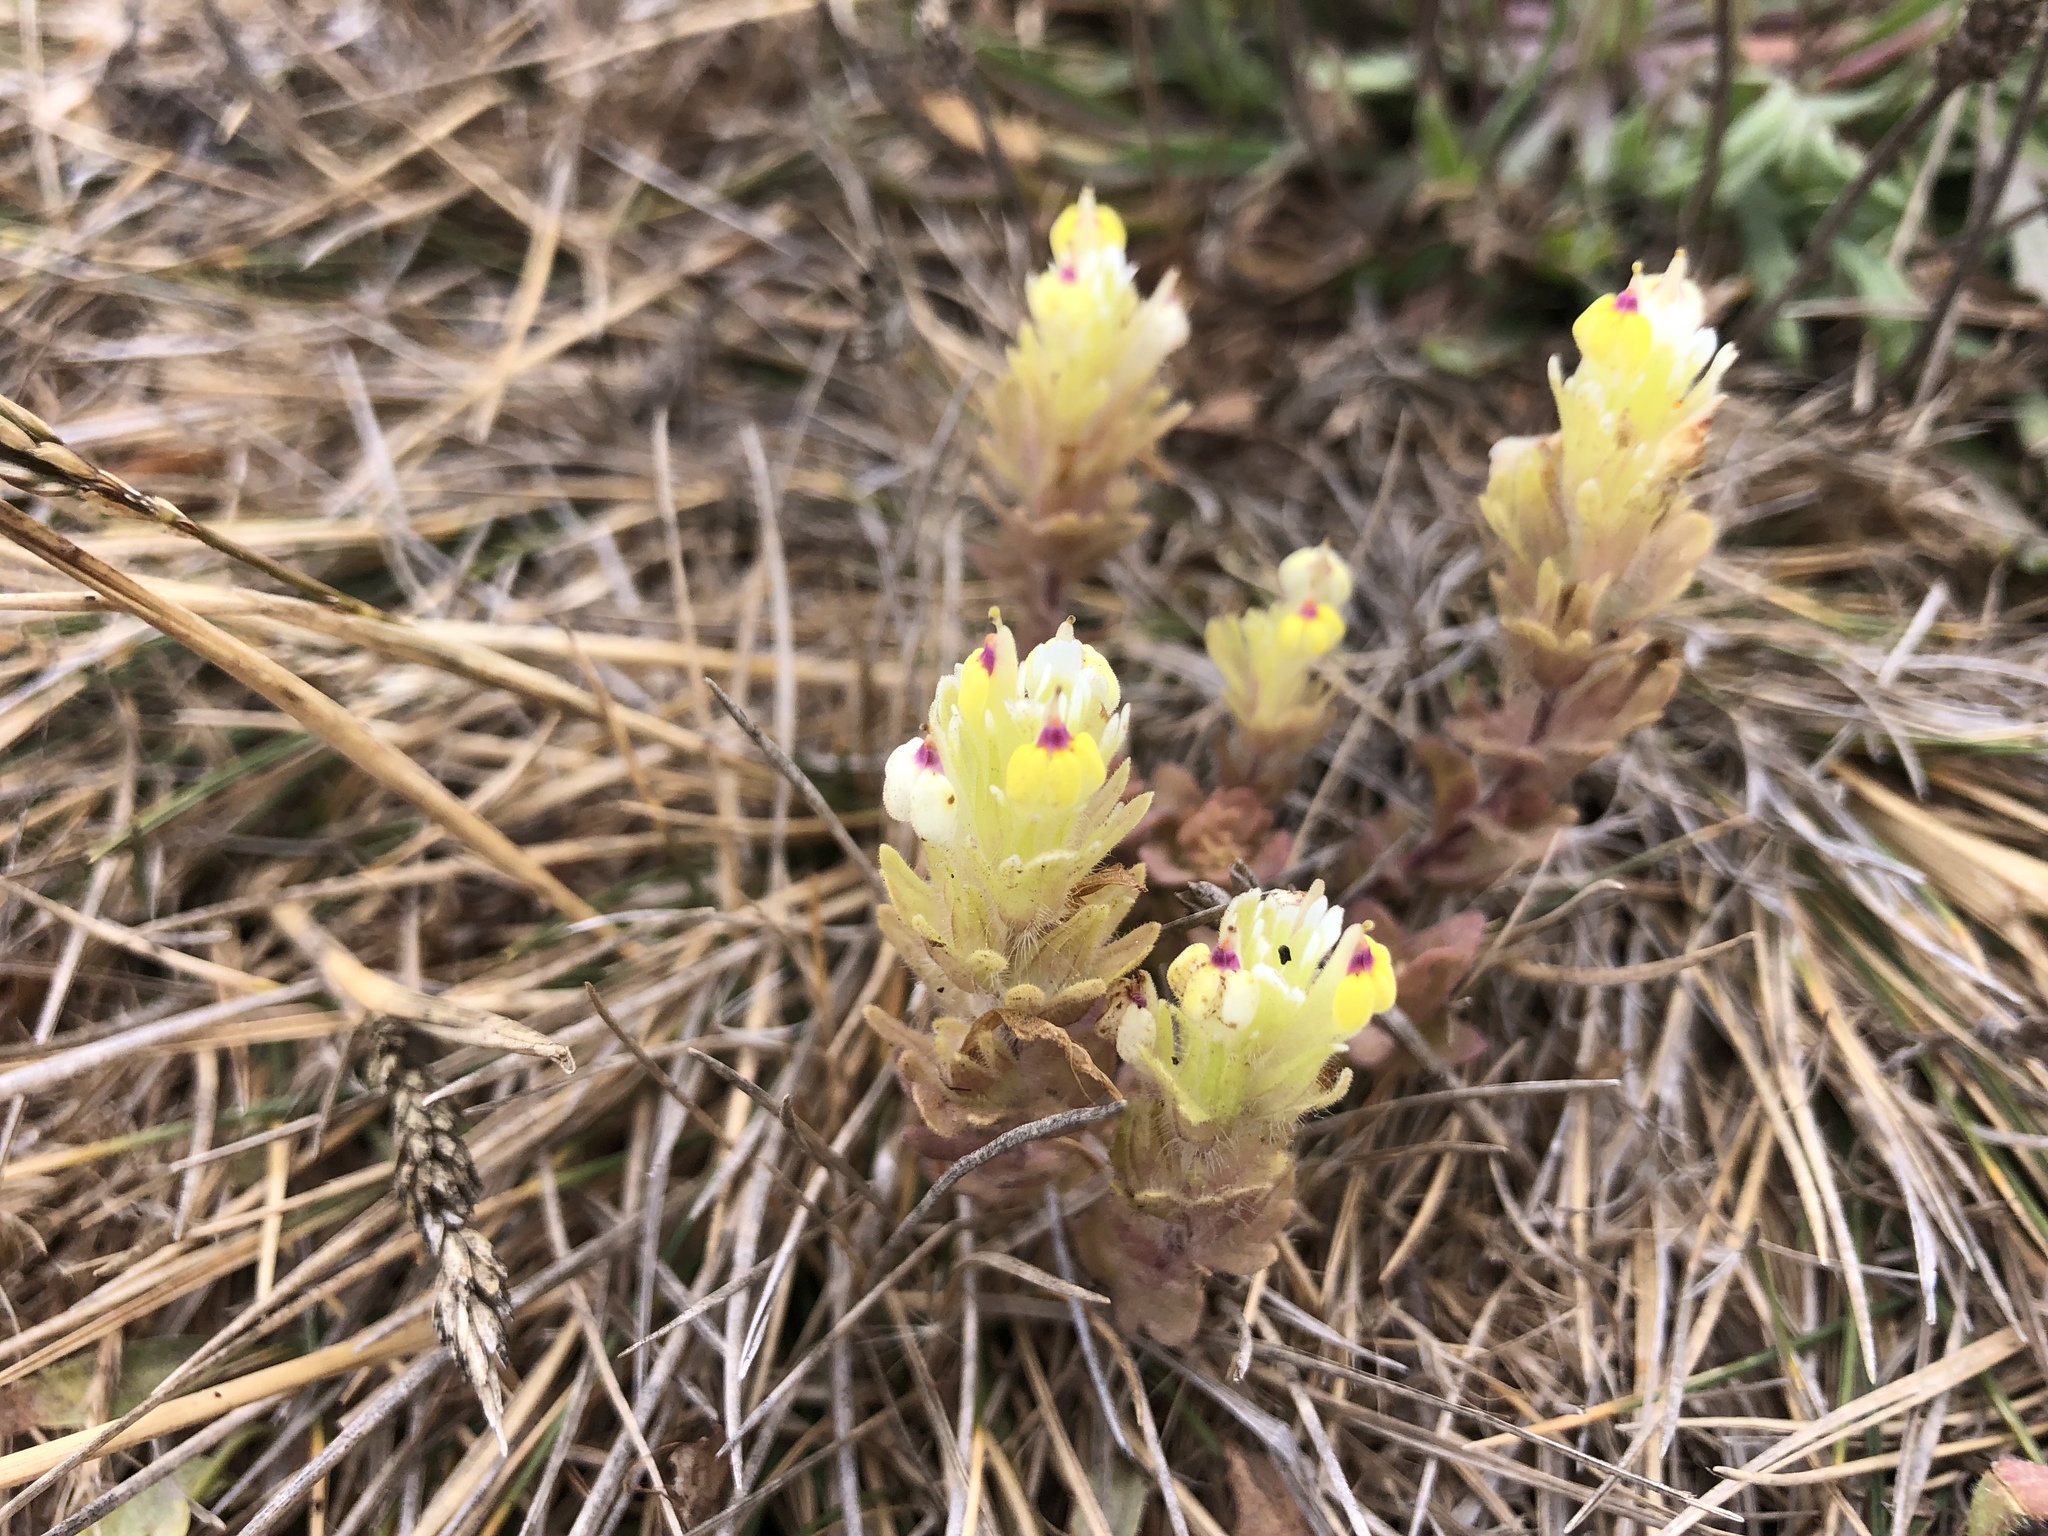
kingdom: Plantae
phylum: Tracheophyta
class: Magnoliopsida
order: Lamiales
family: Orobanchaceae
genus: Castilleja
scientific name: Castilleja ambigua
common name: Johnny-nip
